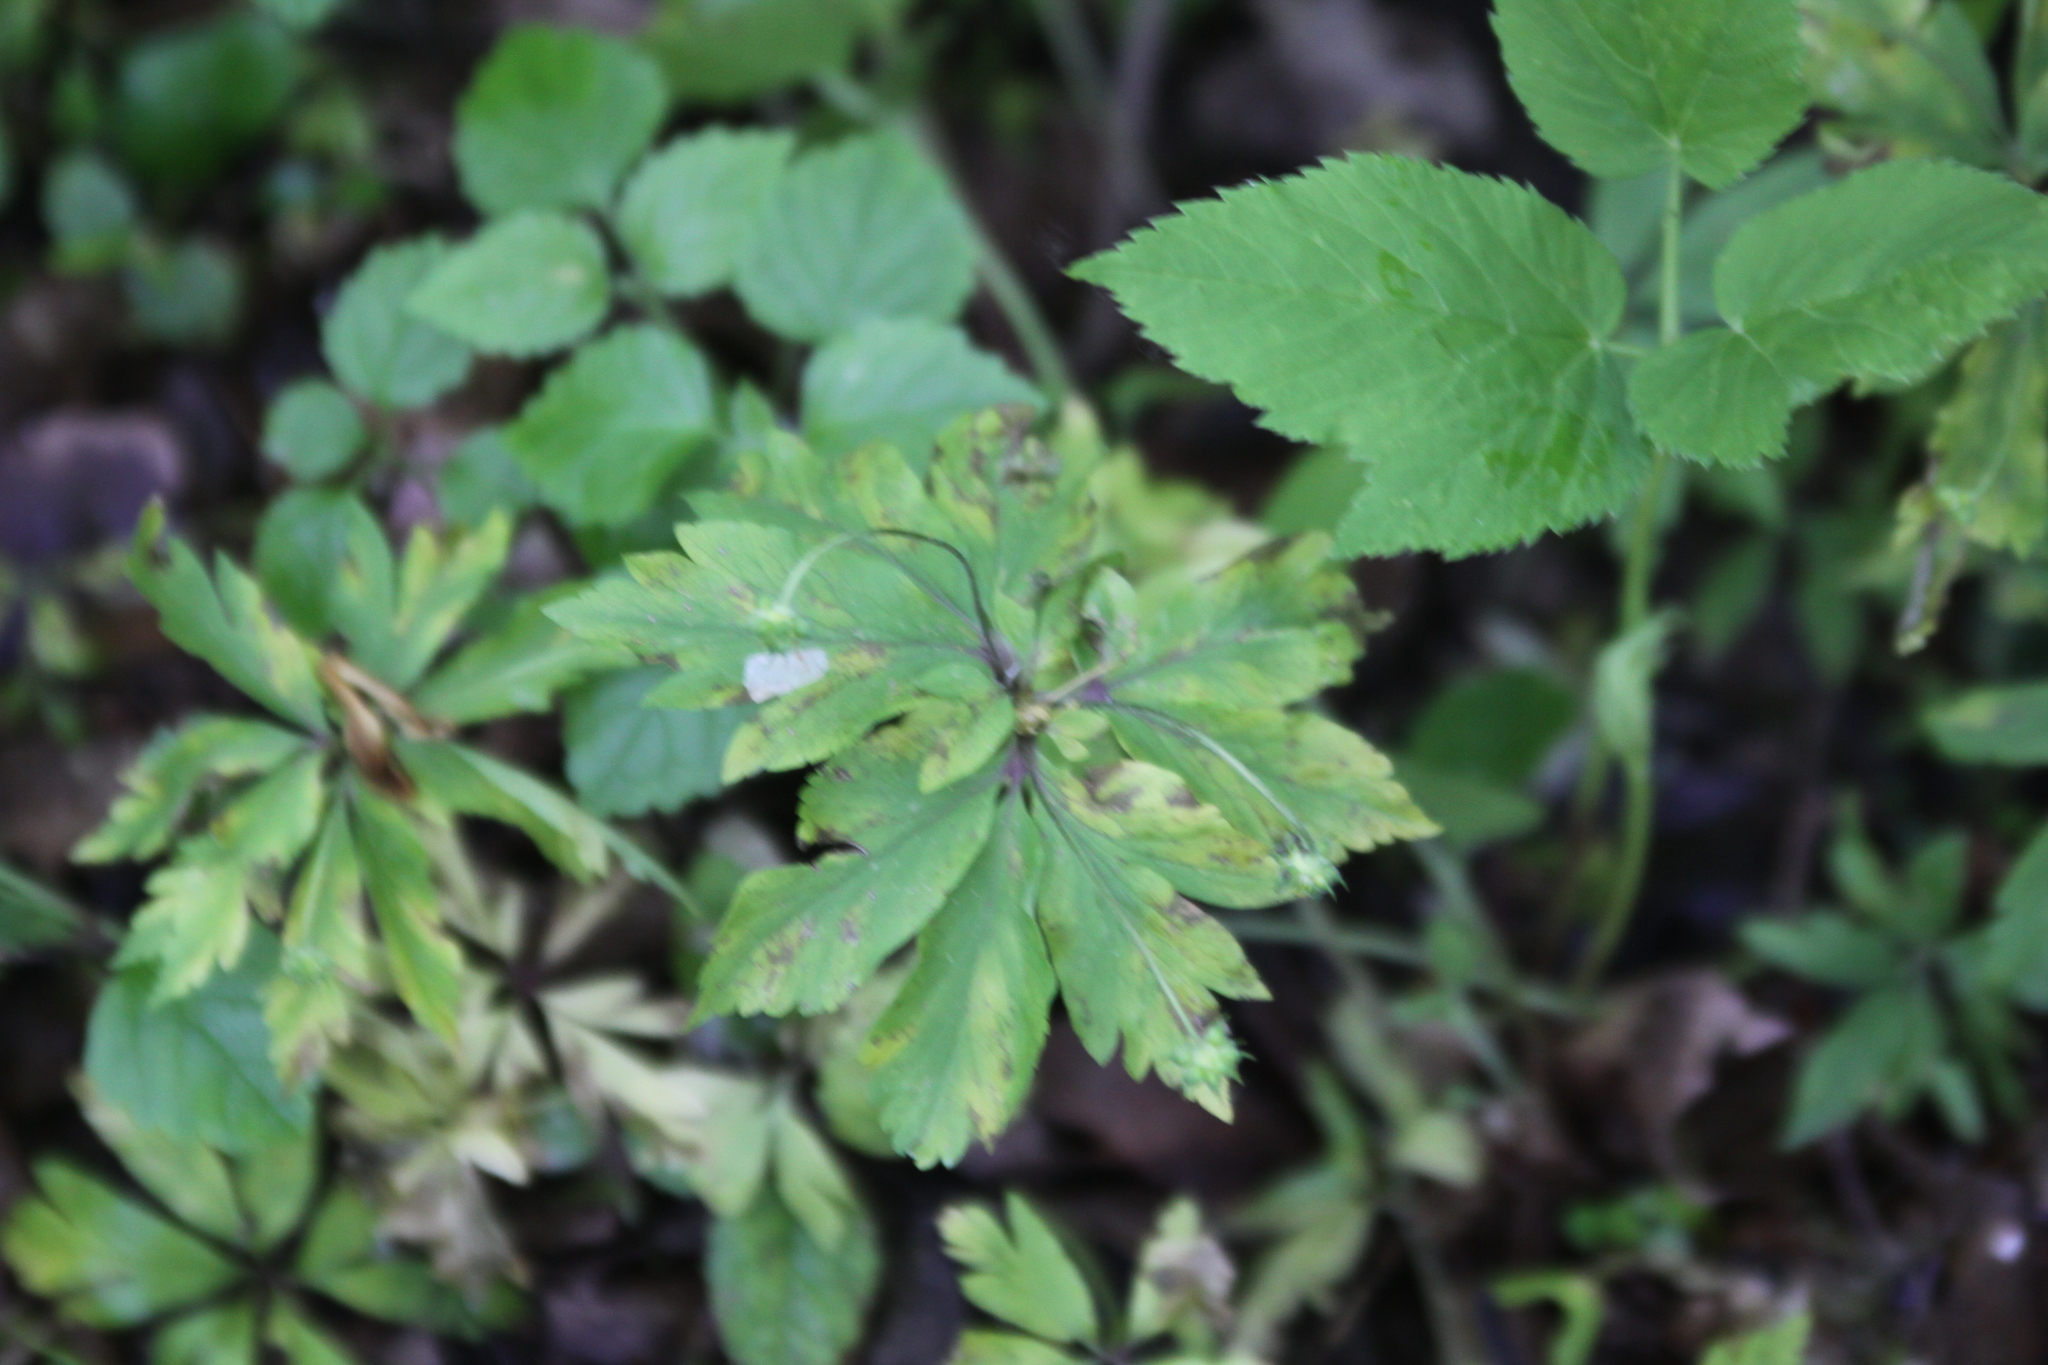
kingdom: Plantae
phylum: Tracheophyta
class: Magnoliopsida
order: Ranunculales
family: Ranunculaceae
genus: Anemone
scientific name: Anemone ranunculoides
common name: Yellow anemone
